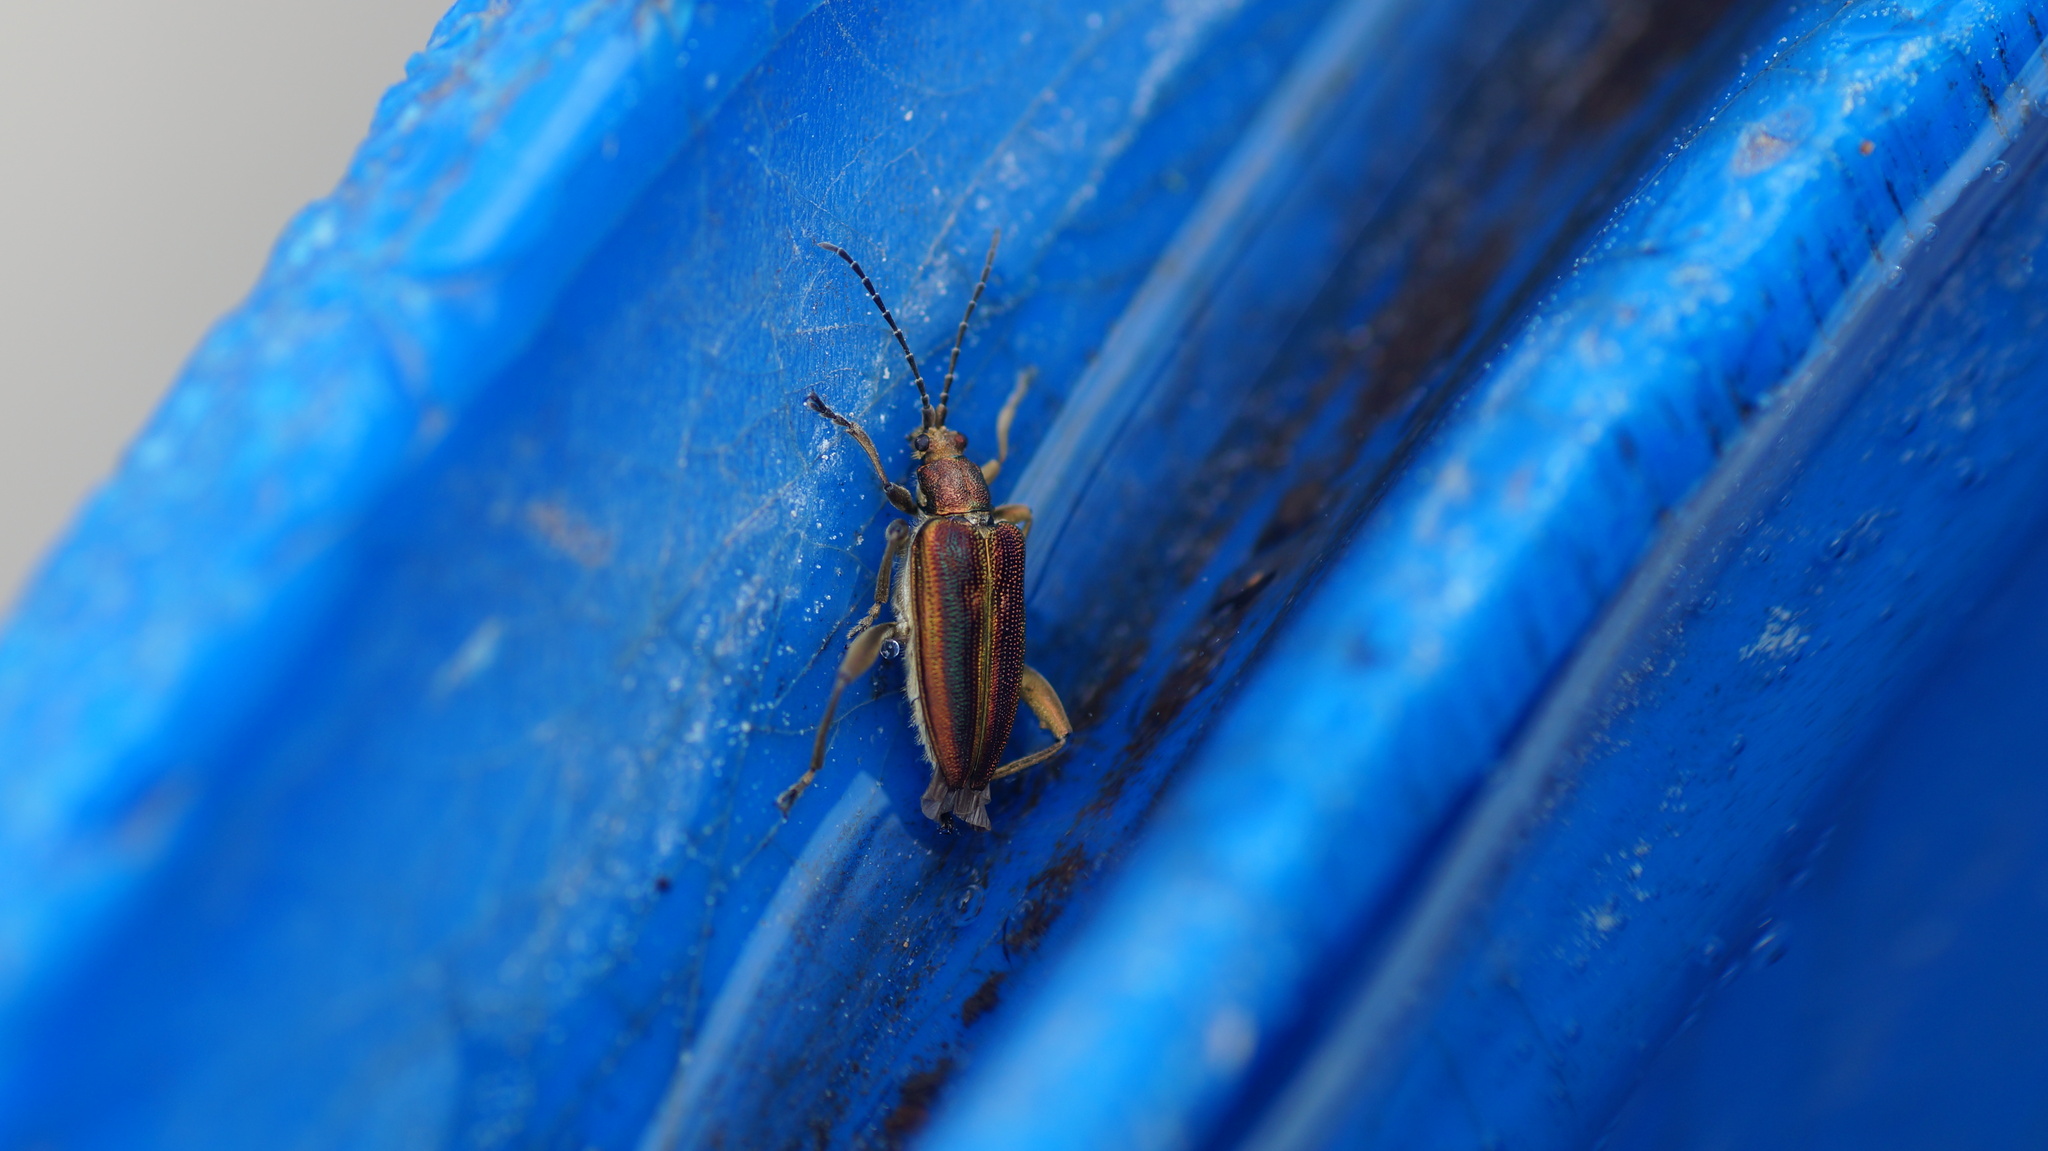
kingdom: Animalia
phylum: Arthropoda
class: Insecta
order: Coleoptera
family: Chrysomelidae
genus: Donacia
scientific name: Donacia aquatica
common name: Zircon reed beetle
